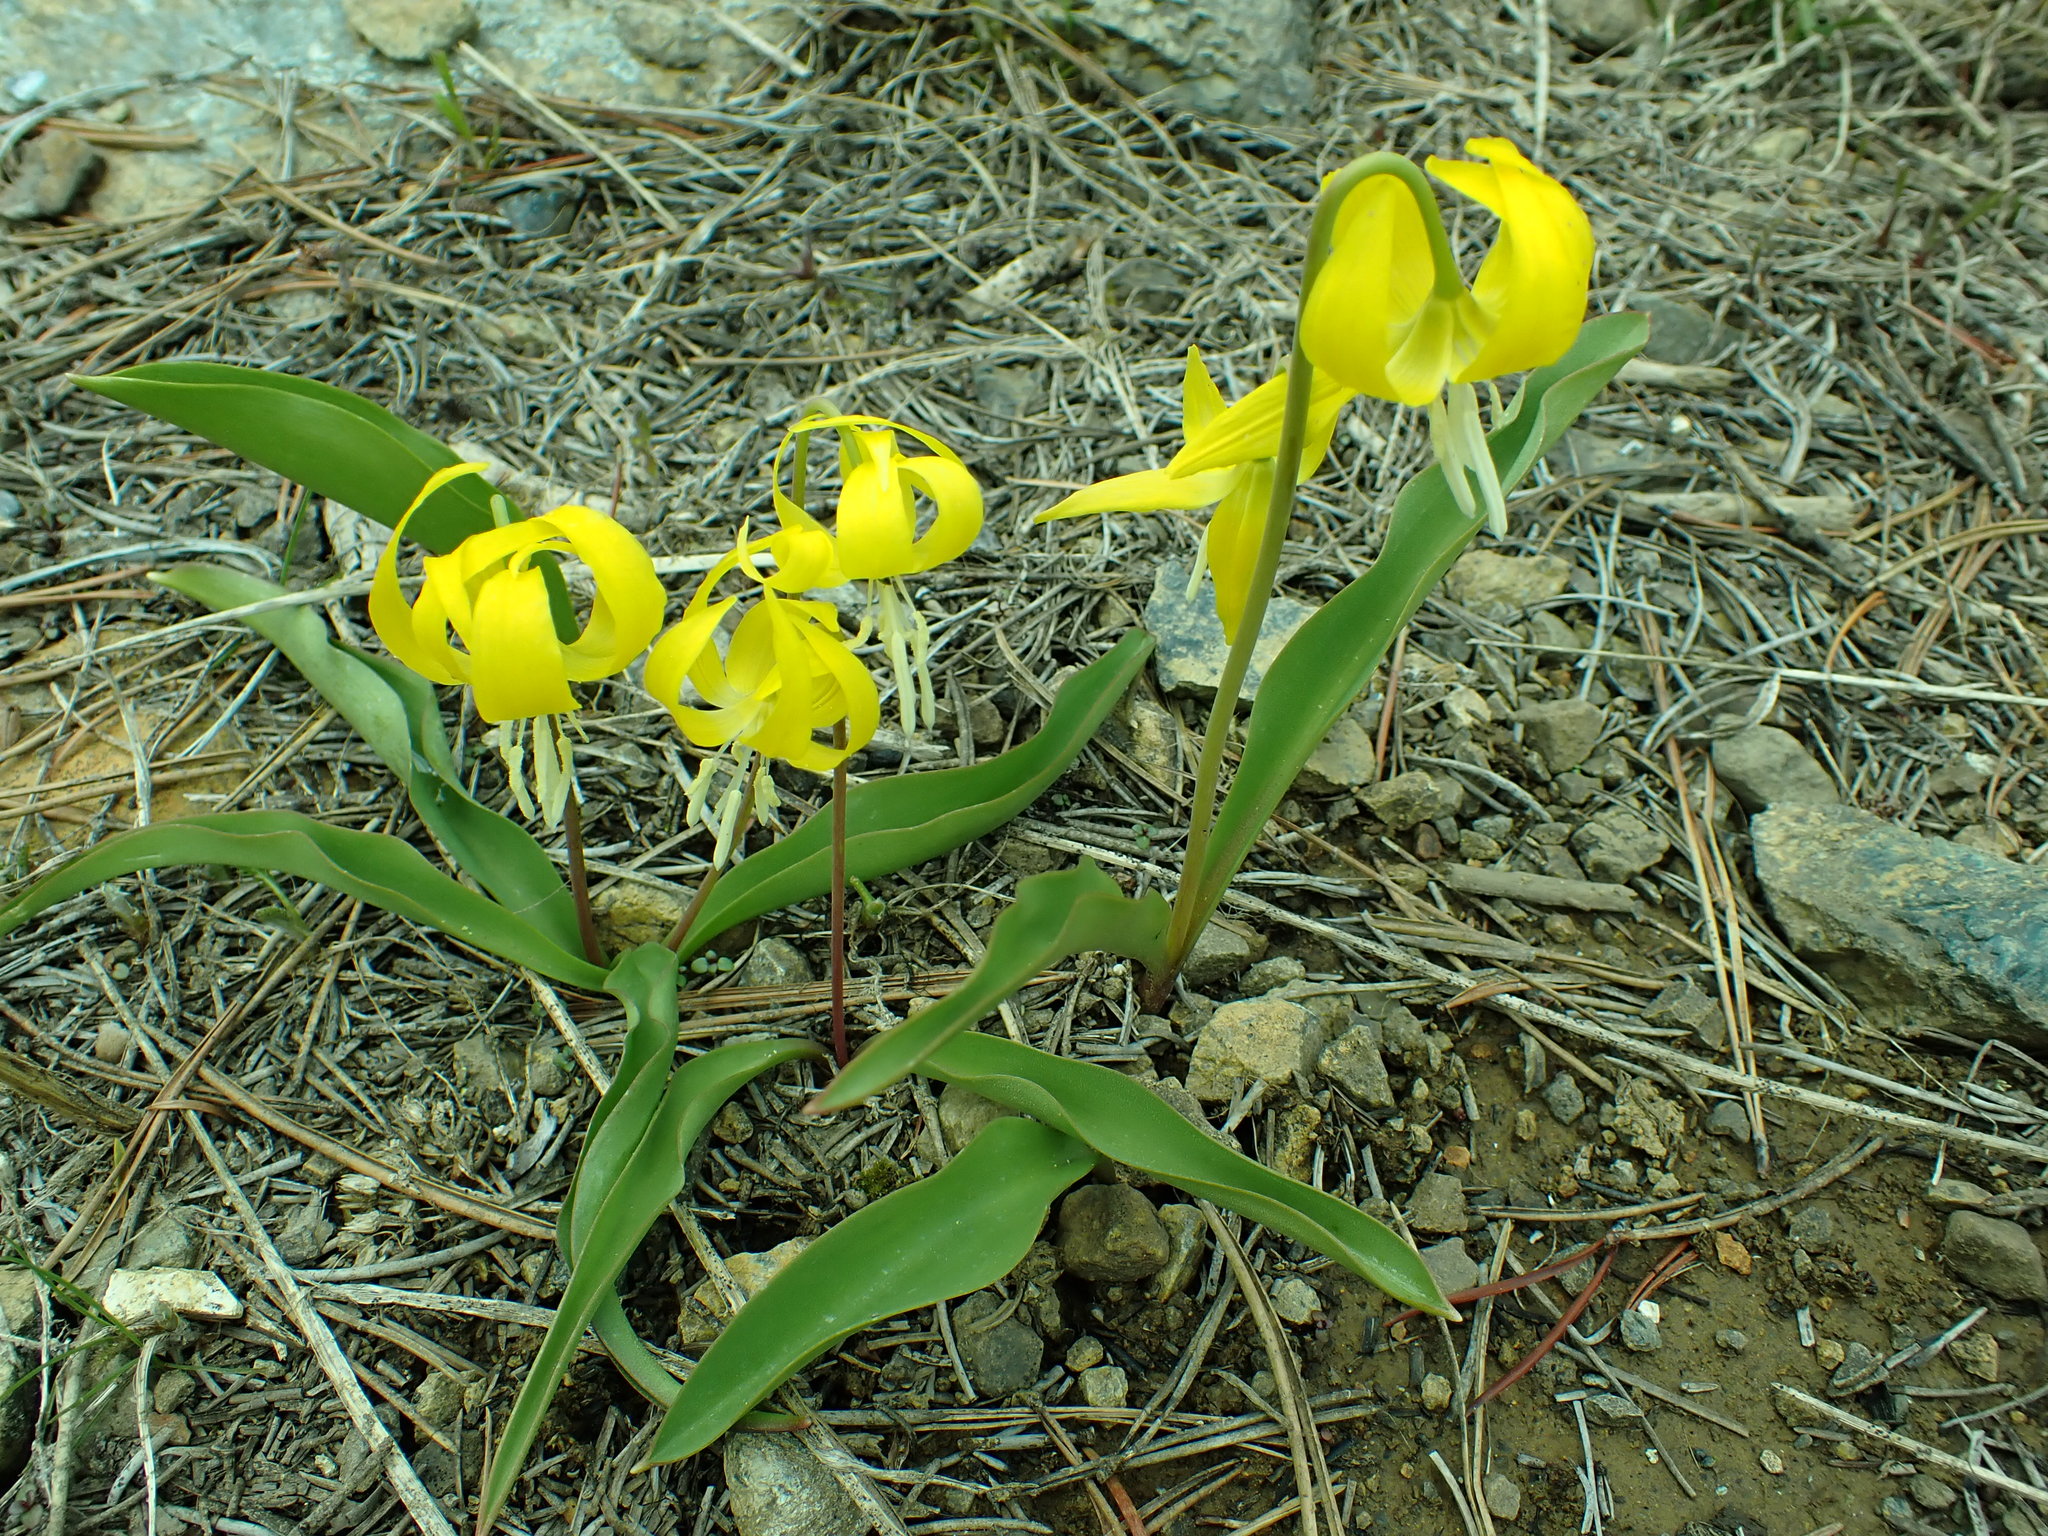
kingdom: Plantae
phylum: Tracheophyta
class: Liliopsida
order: Liliales
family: Liliaceae
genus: Erythronium
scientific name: Erythronium grandiflorum
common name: Avalanche-lily
